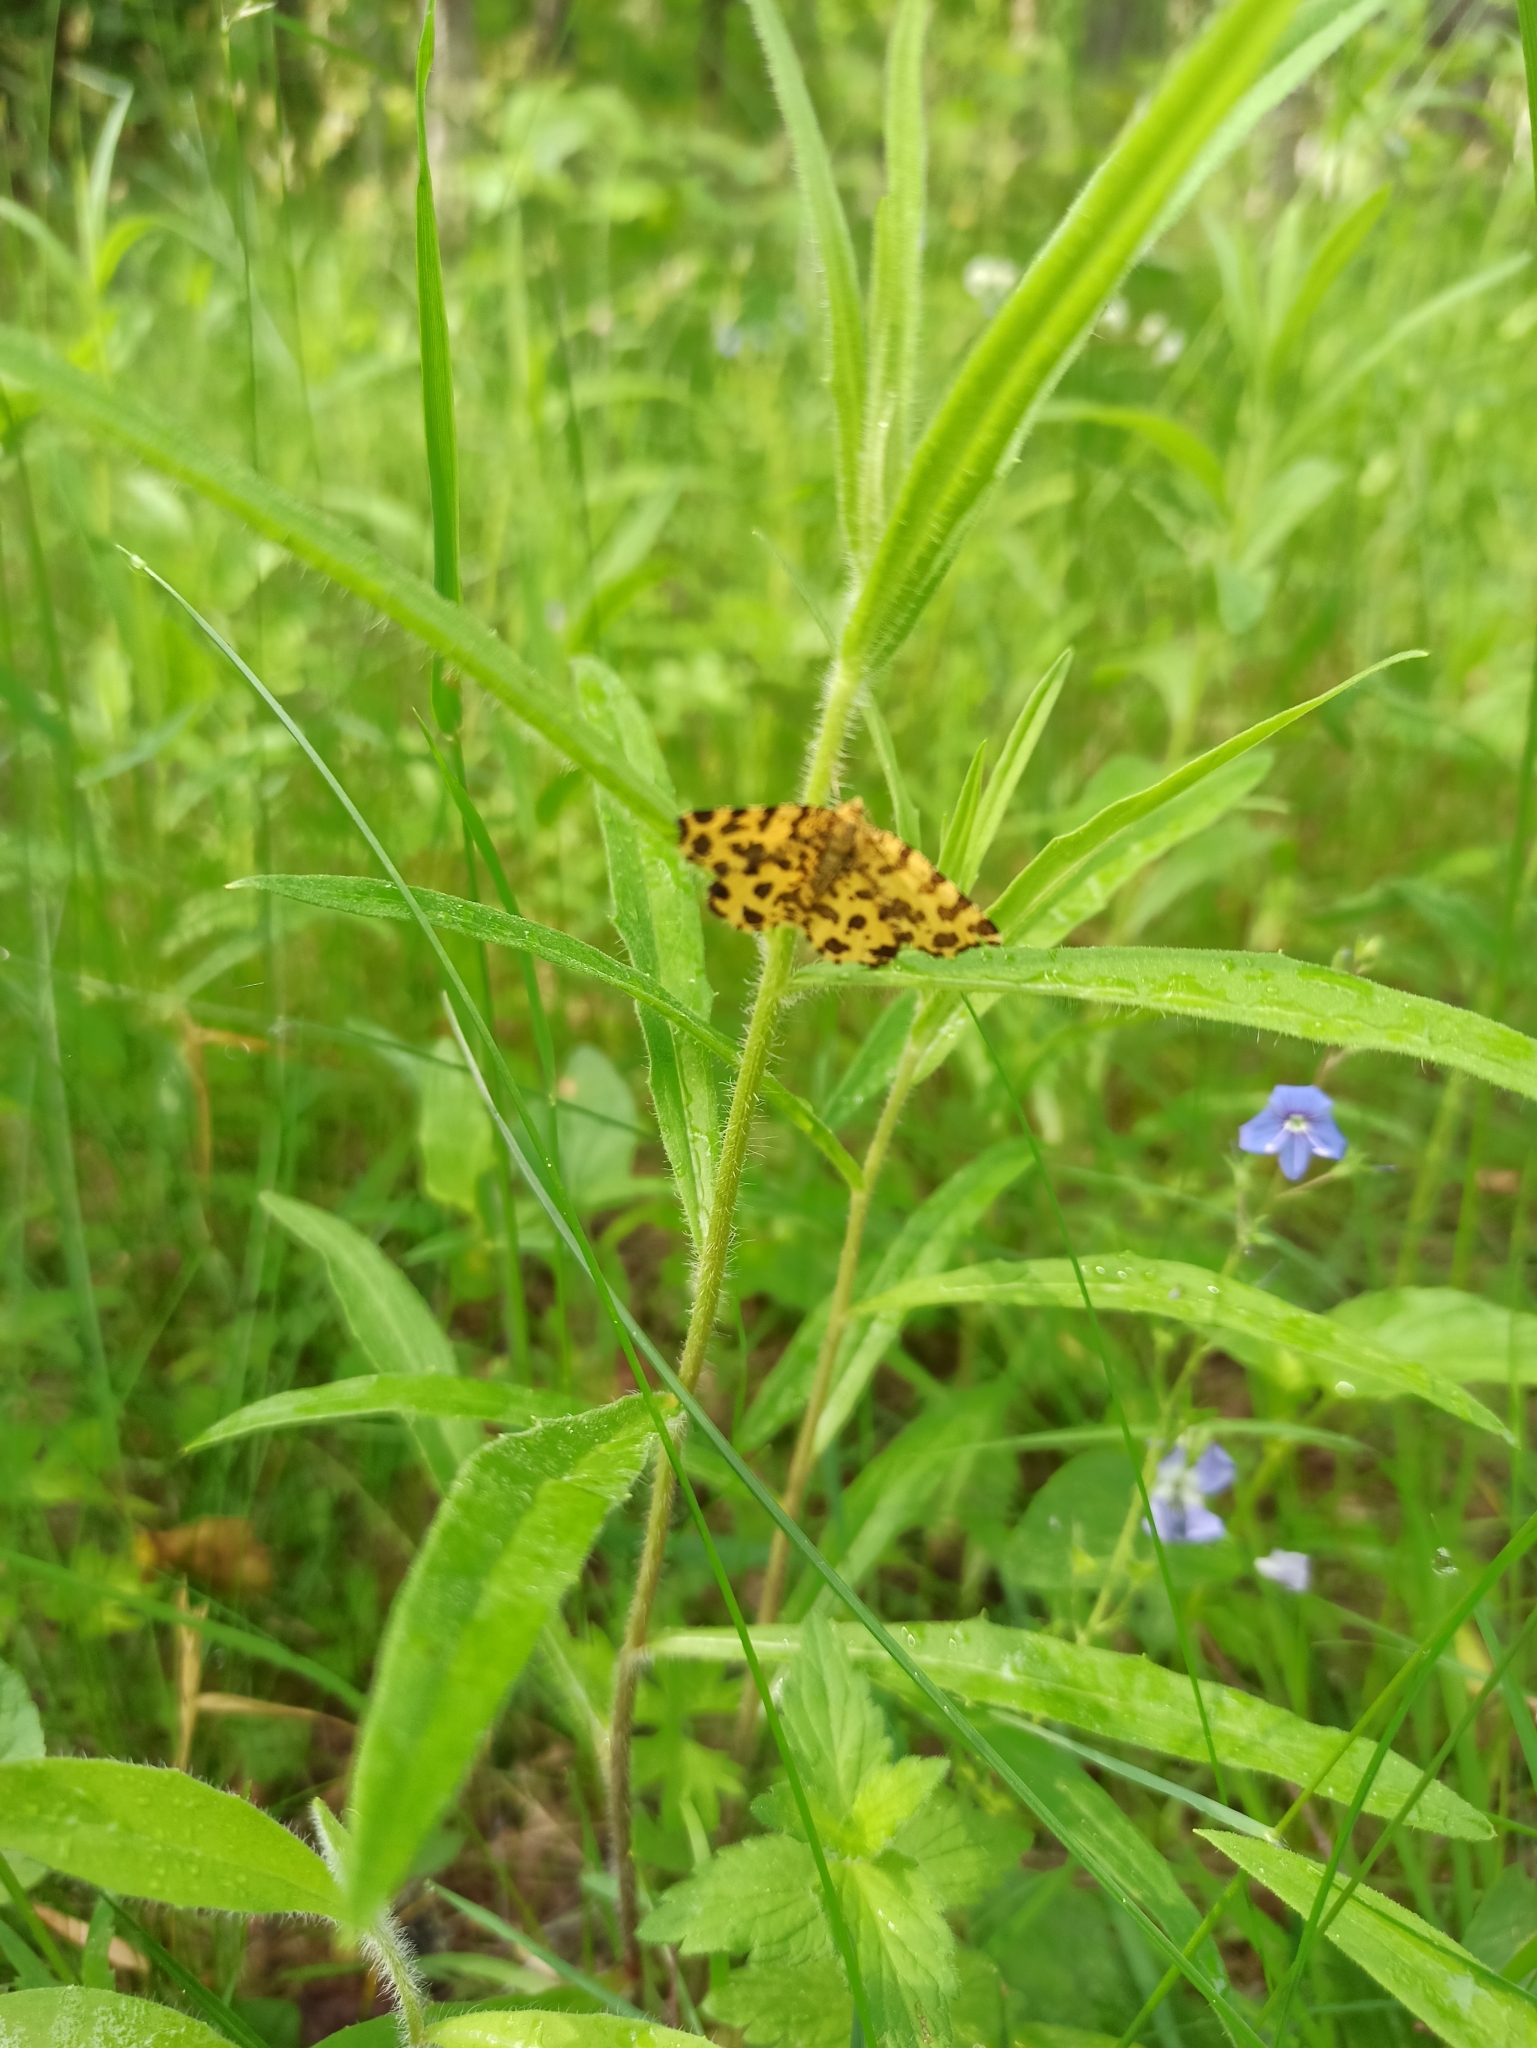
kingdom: Animalia
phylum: Arthropoda
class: Insecta
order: Lepidoptera
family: Geometridae
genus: Pseudopanthera
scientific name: Pseudopanthera macularia
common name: Speckled yellow
